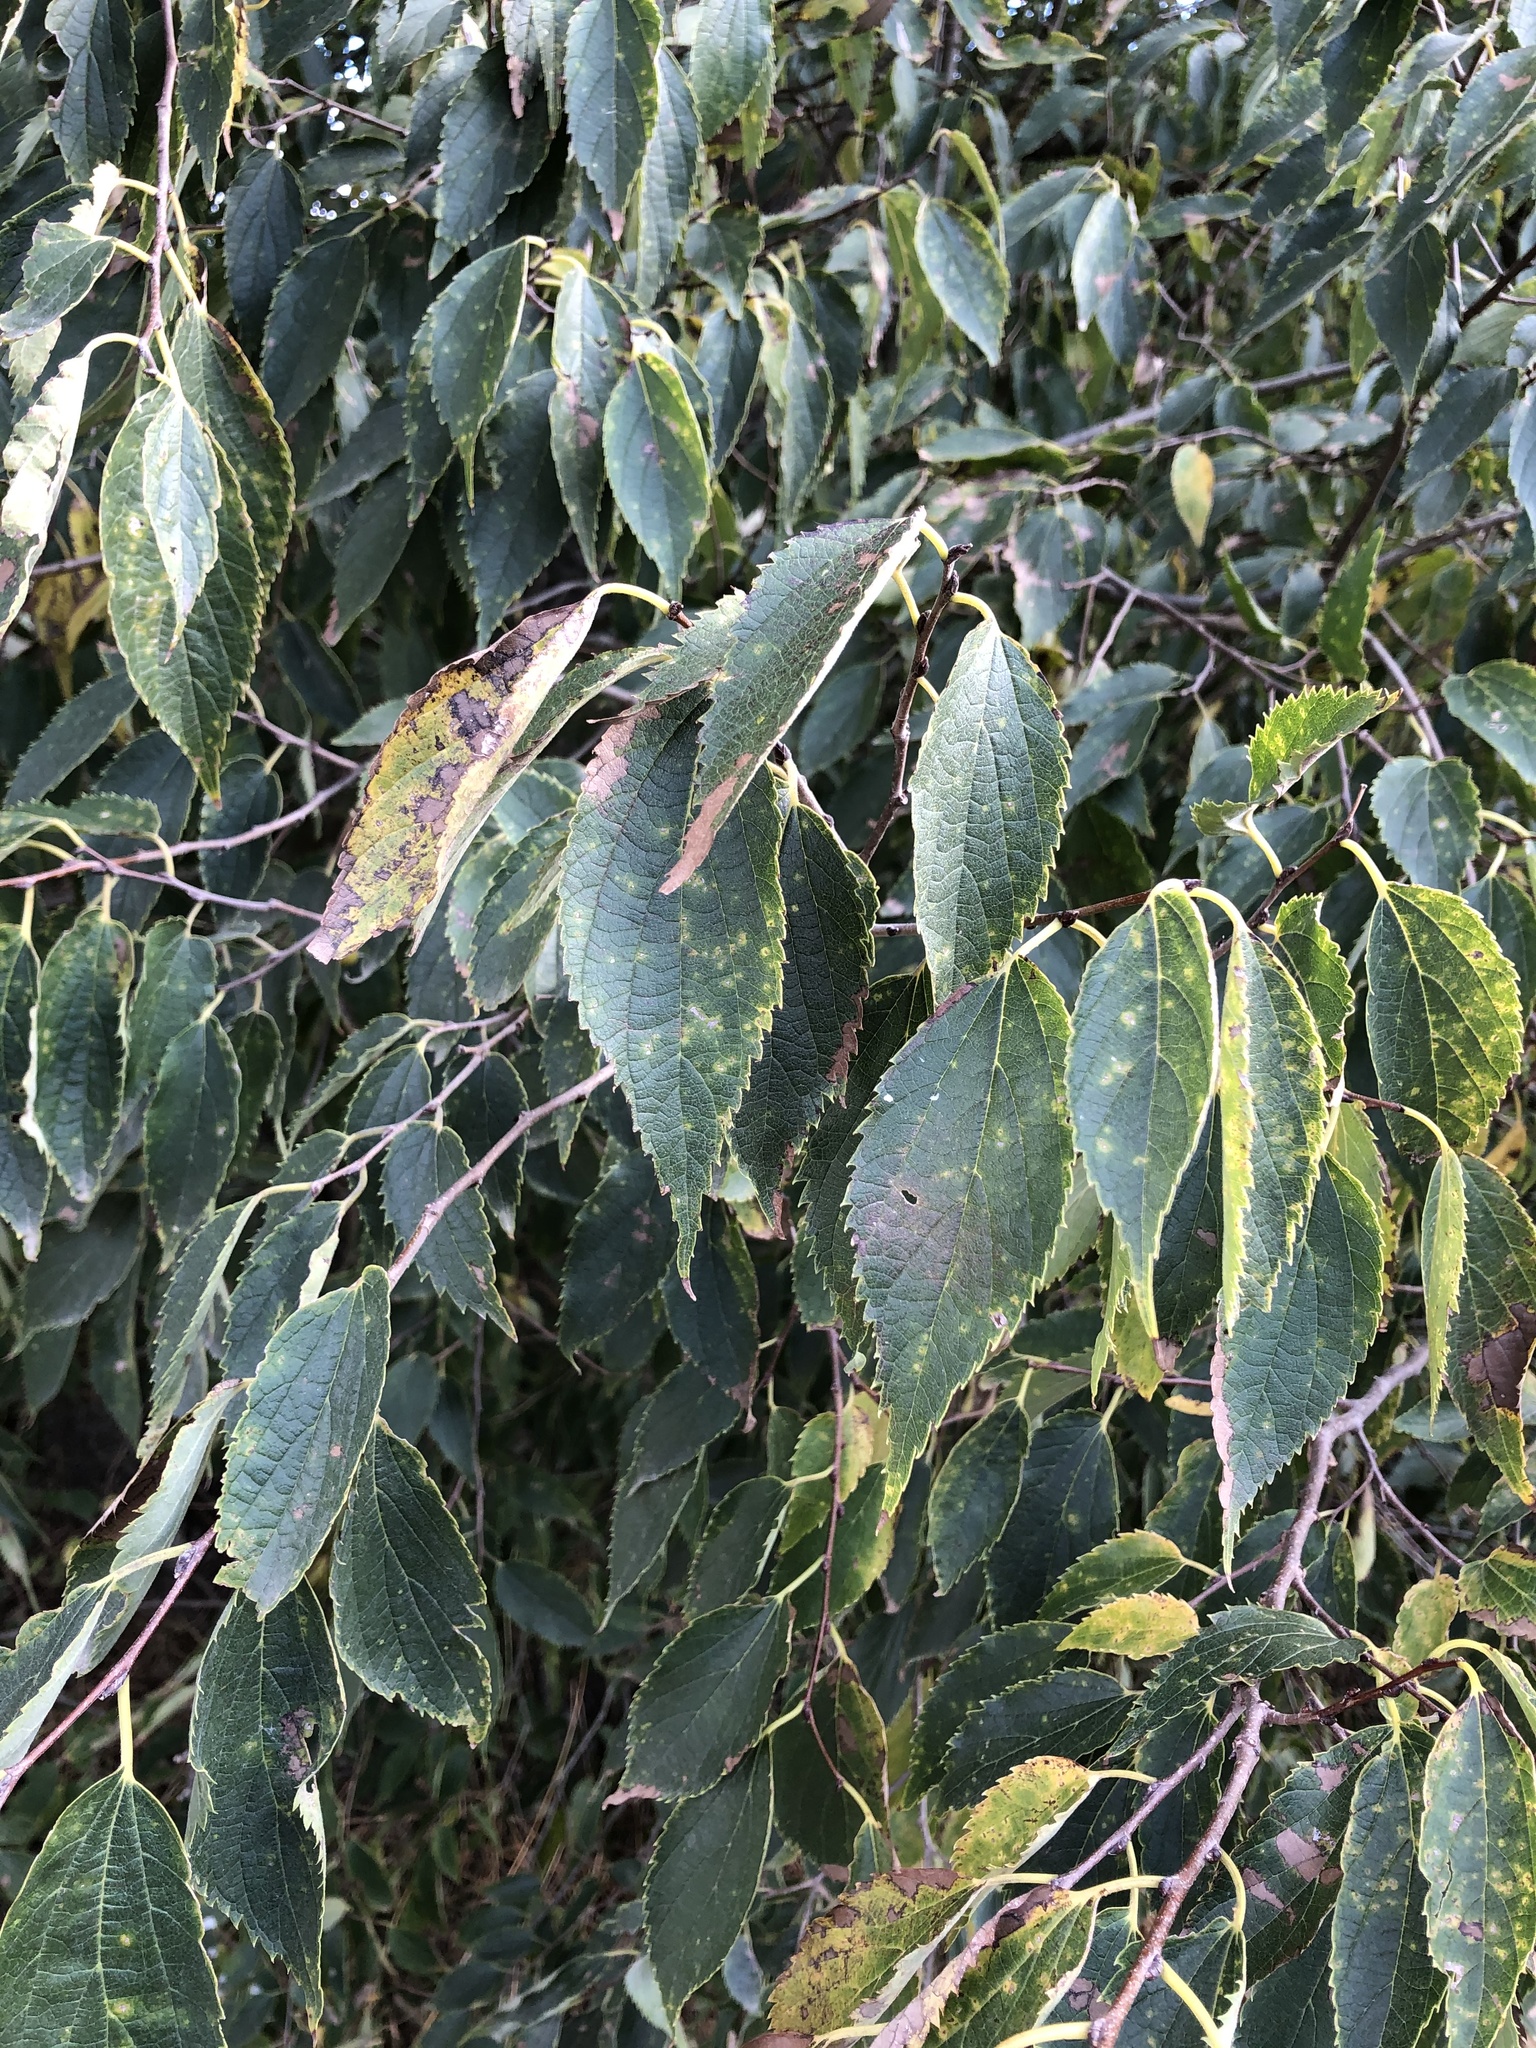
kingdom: Plantae
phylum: Tracheophyta
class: Magnoliopsida
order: Rosales
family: Cannabaceae
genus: Celtis
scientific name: Celtis australis
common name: European hackberry
